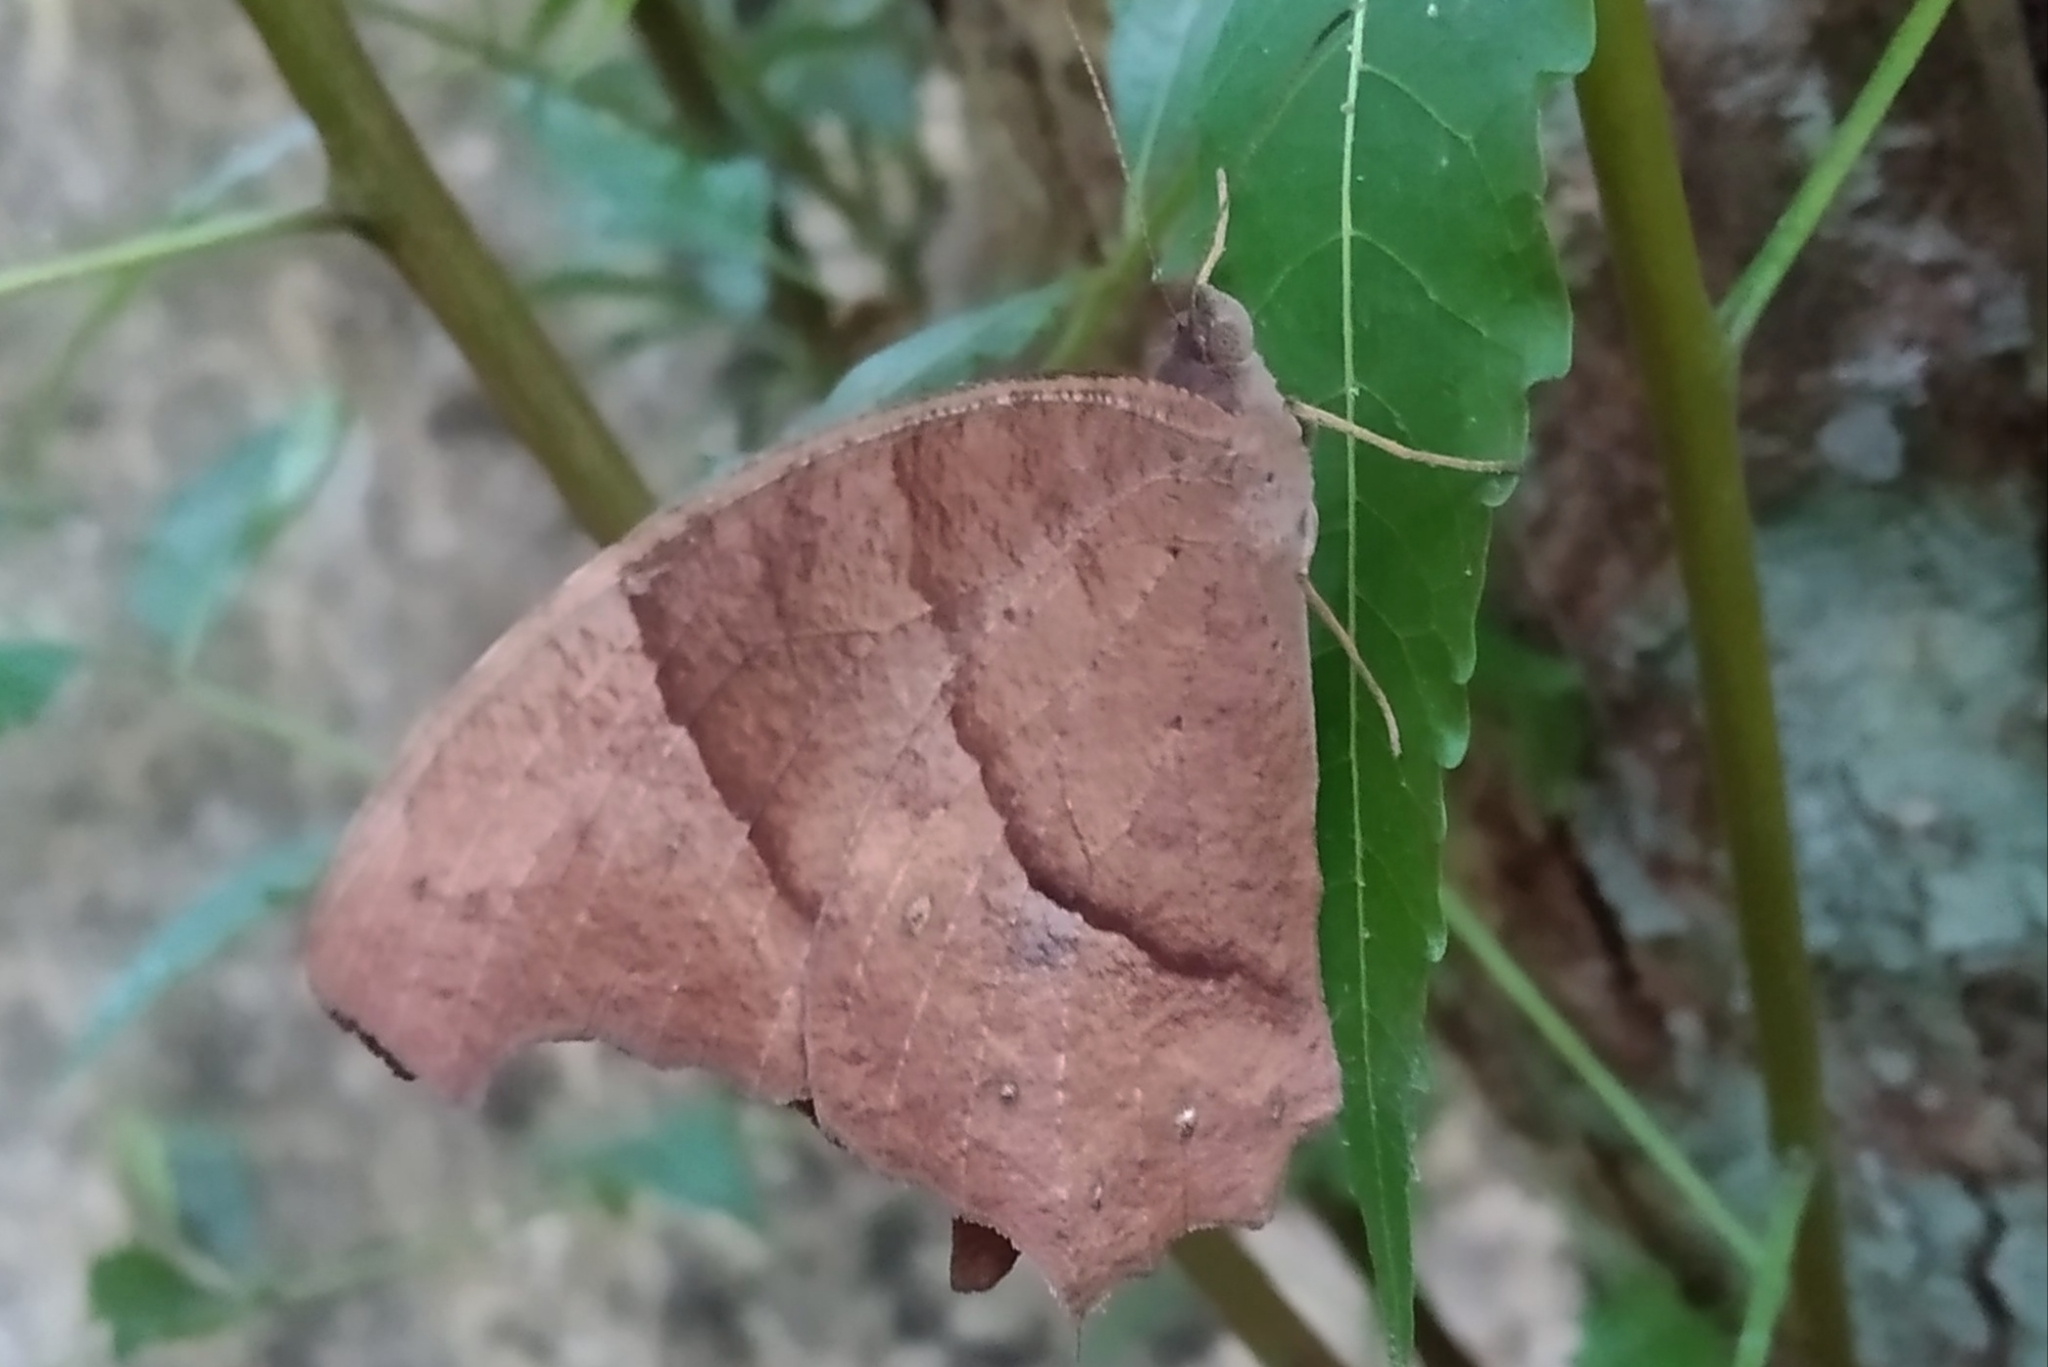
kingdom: Animalia
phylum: Arthropoda
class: Insecta
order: Lepidoptera
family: Nymphalidae
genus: Melanitis
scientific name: Melanitis leda
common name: Twilight brown
